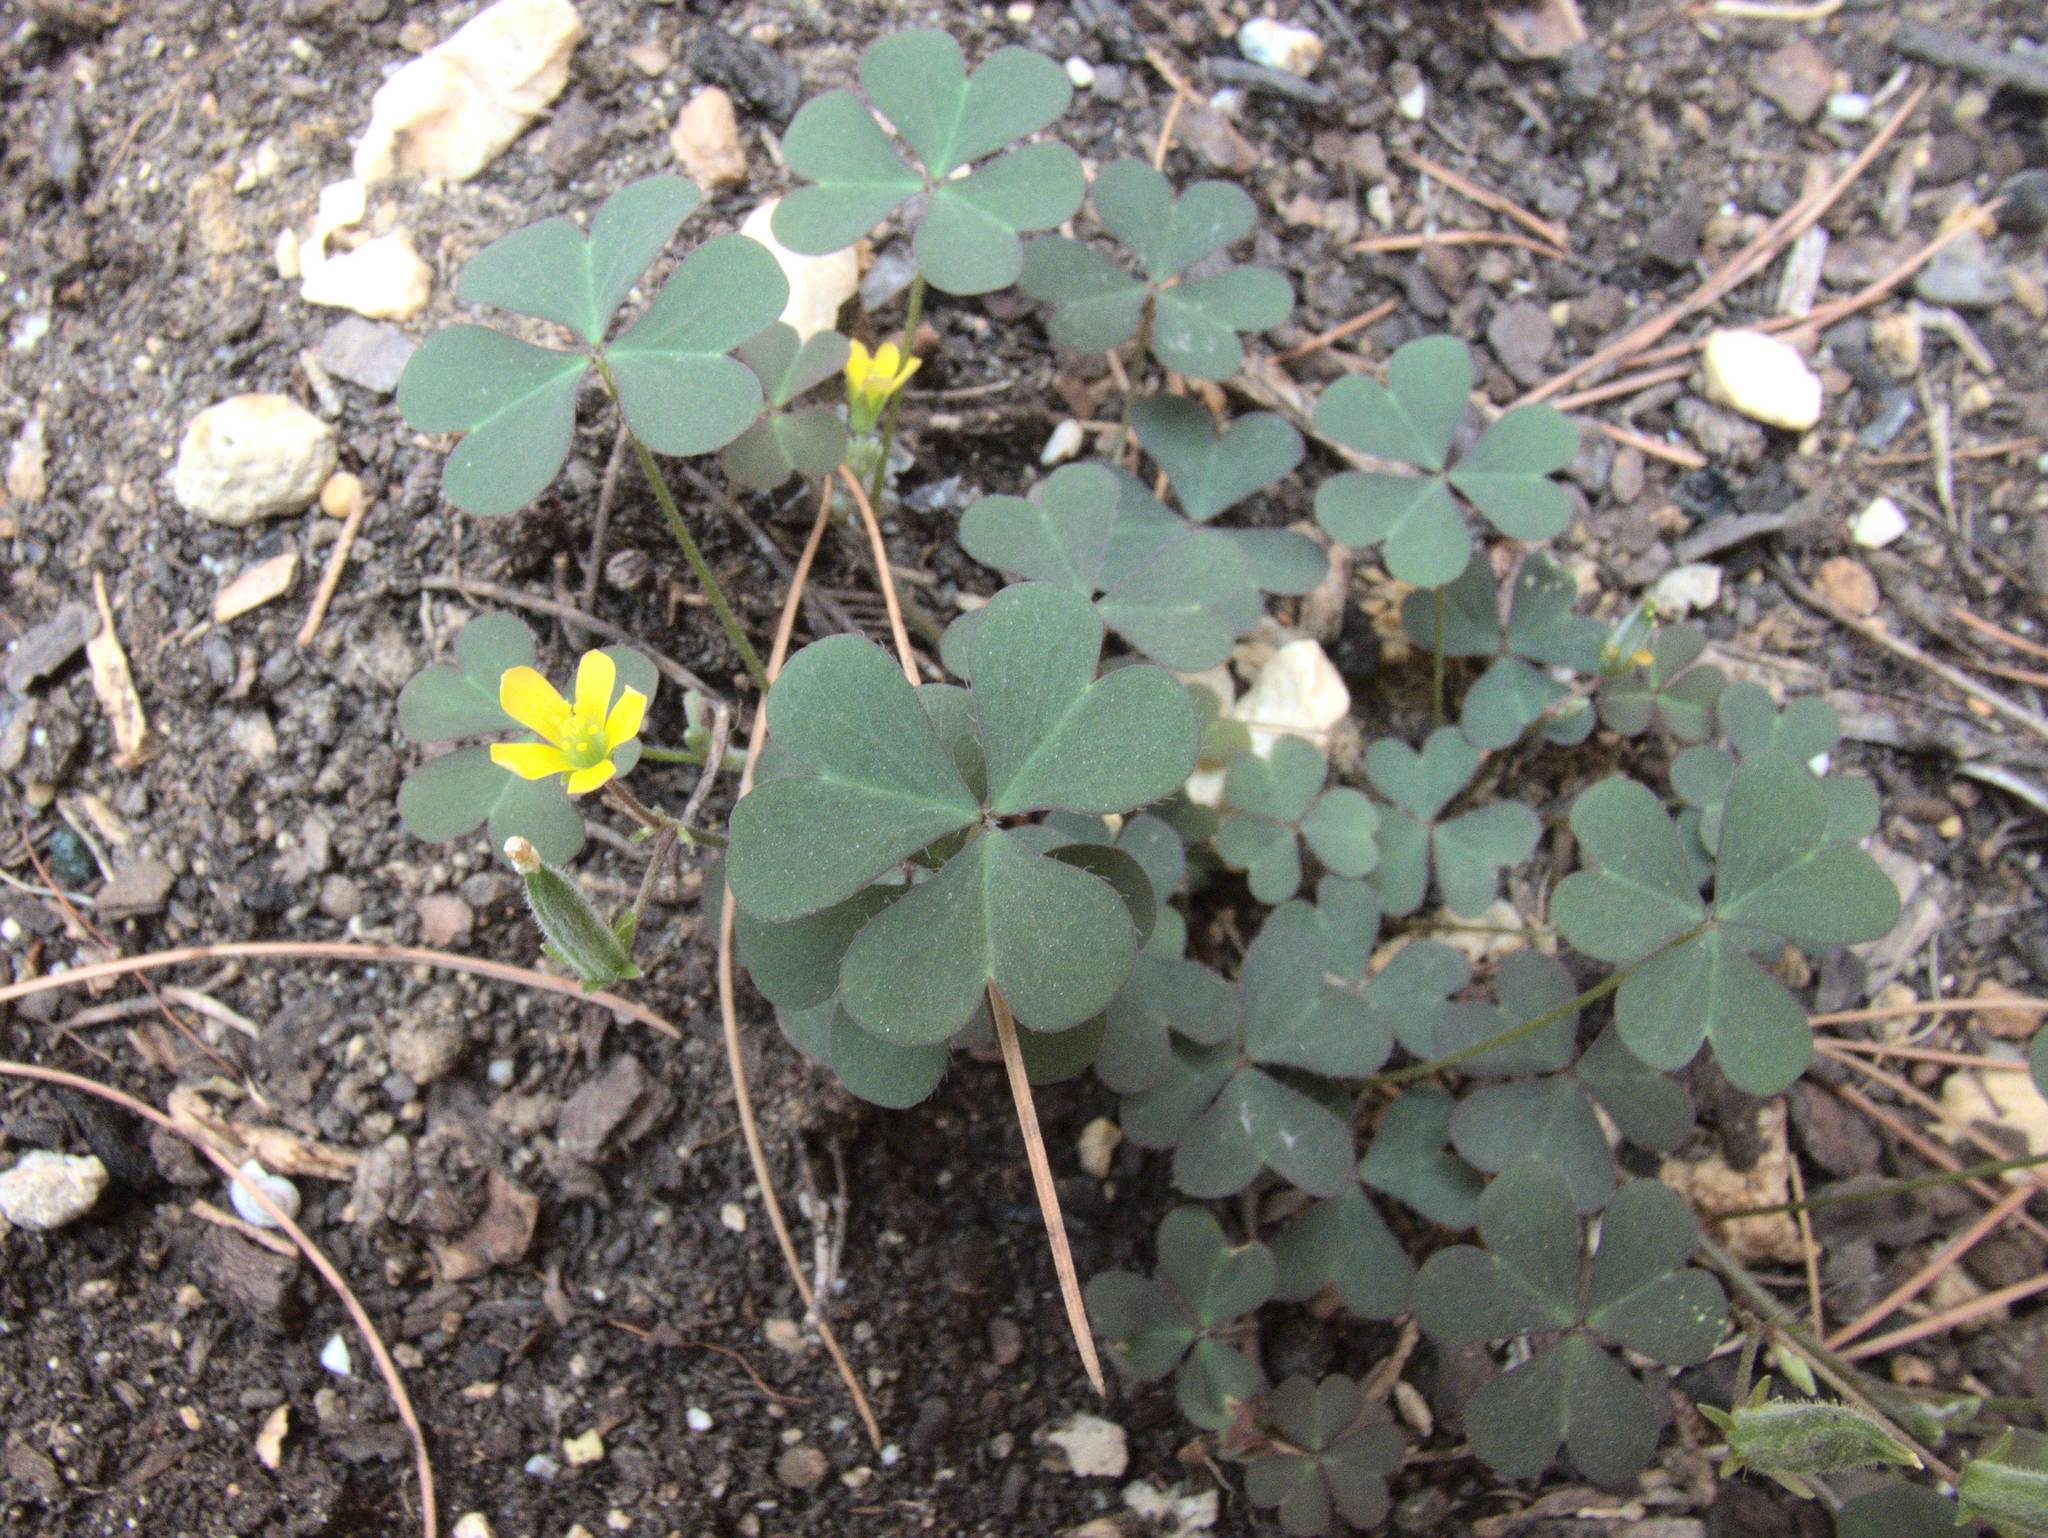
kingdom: Plantae
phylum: Tracheophyta
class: Magnoliopsida
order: Oxalidales
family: Oxalidaceae
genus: Oxalis
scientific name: Oxalis corniculata
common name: Procumbent yellow-sorrel
